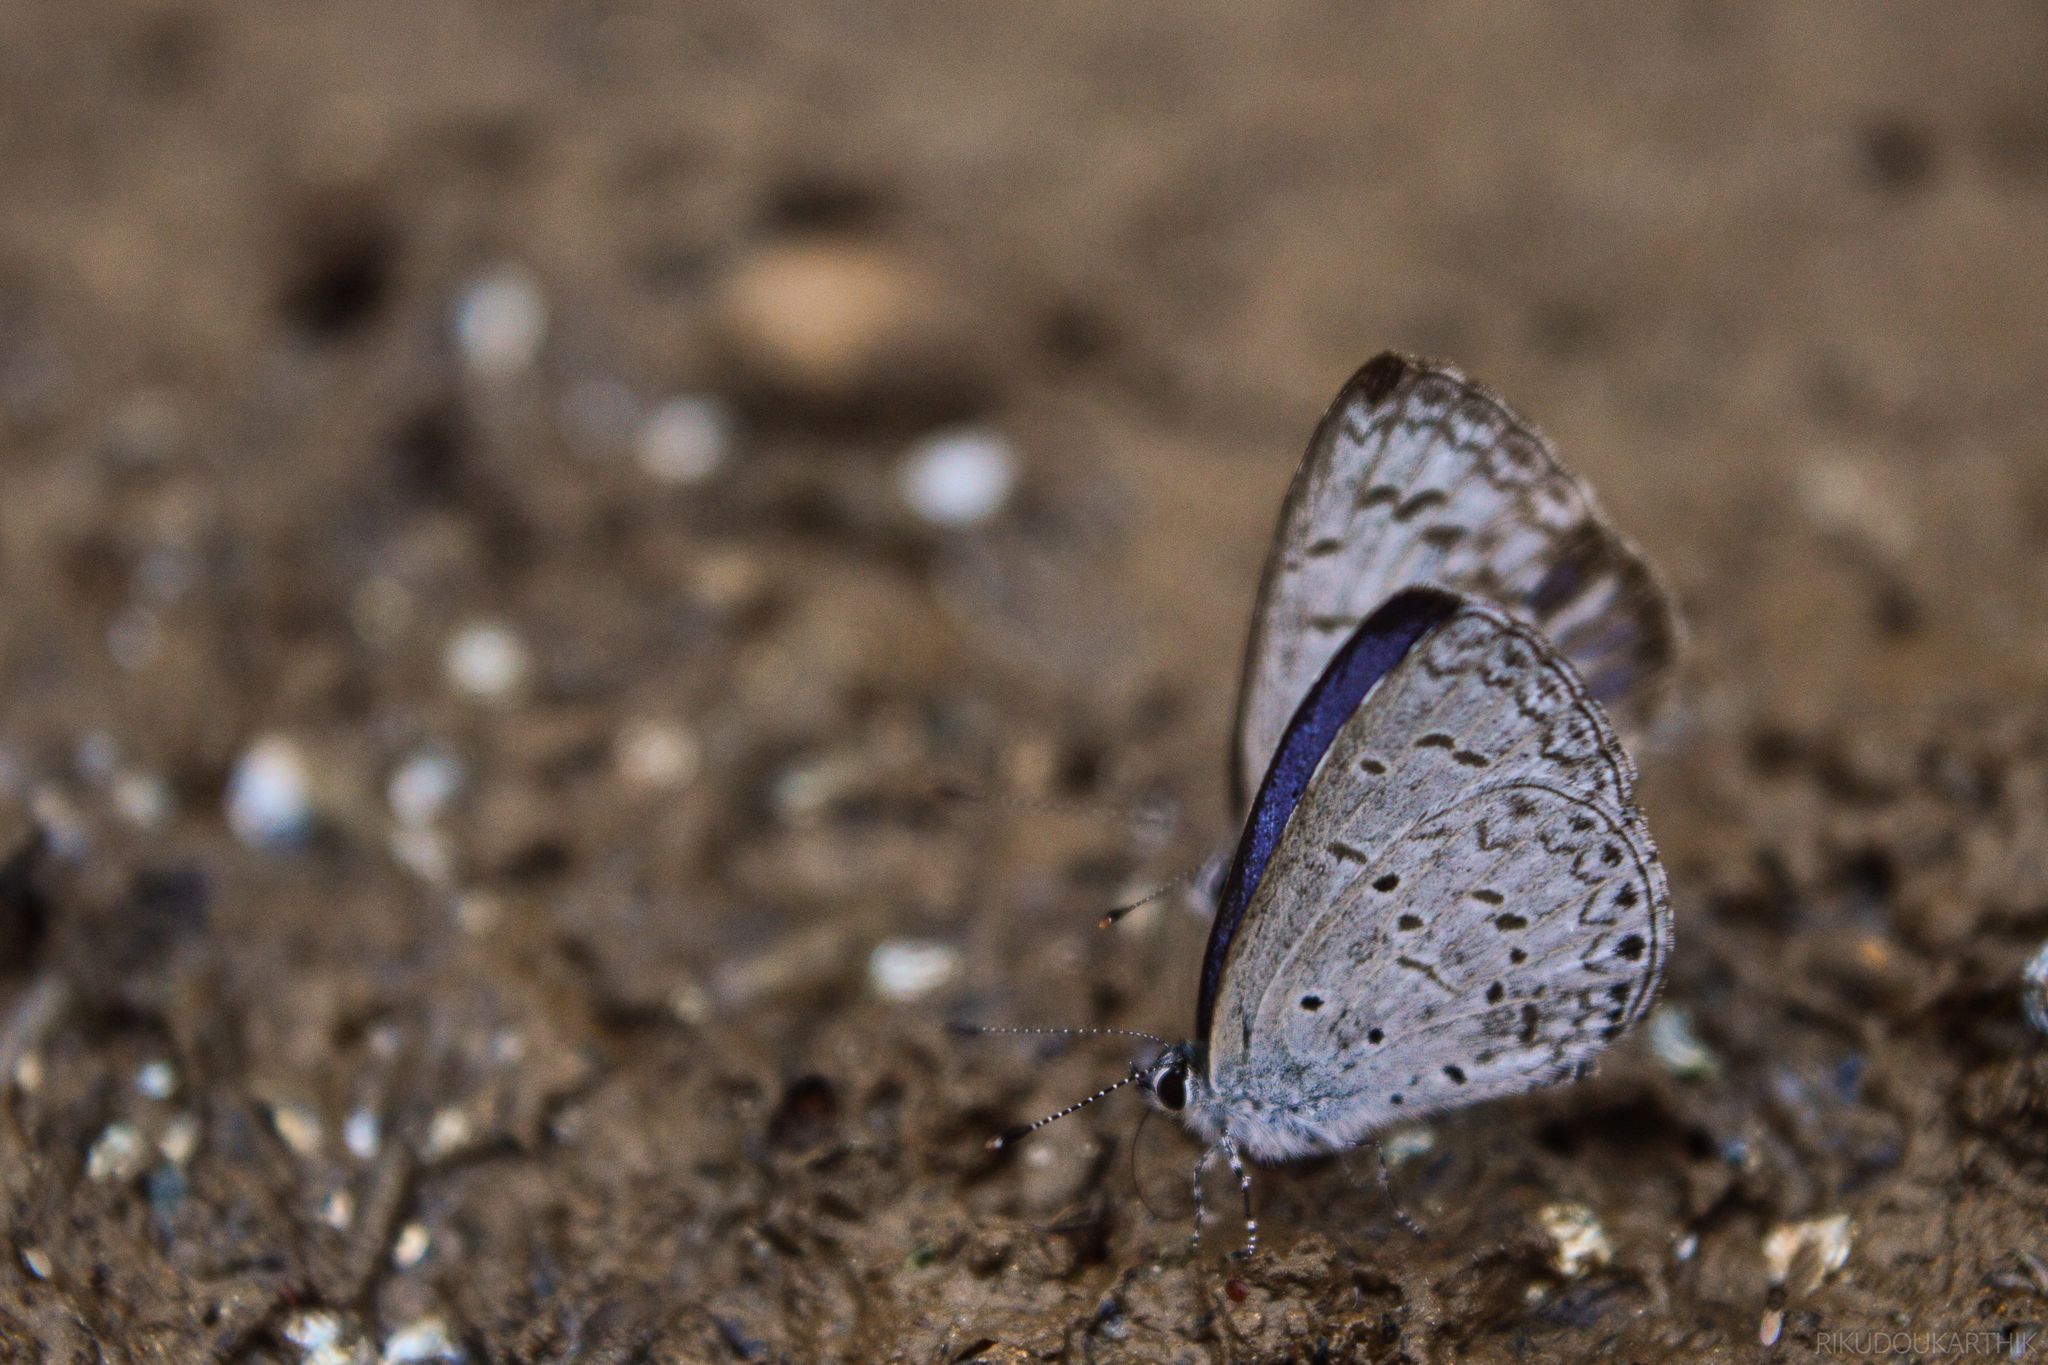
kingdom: Animalia
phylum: Arthropoda
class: Insecta
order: Lepidoptera
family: Lycaenidae
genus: Celastrina
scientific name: Celastrina lavendularis
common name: Plain hedge blue
